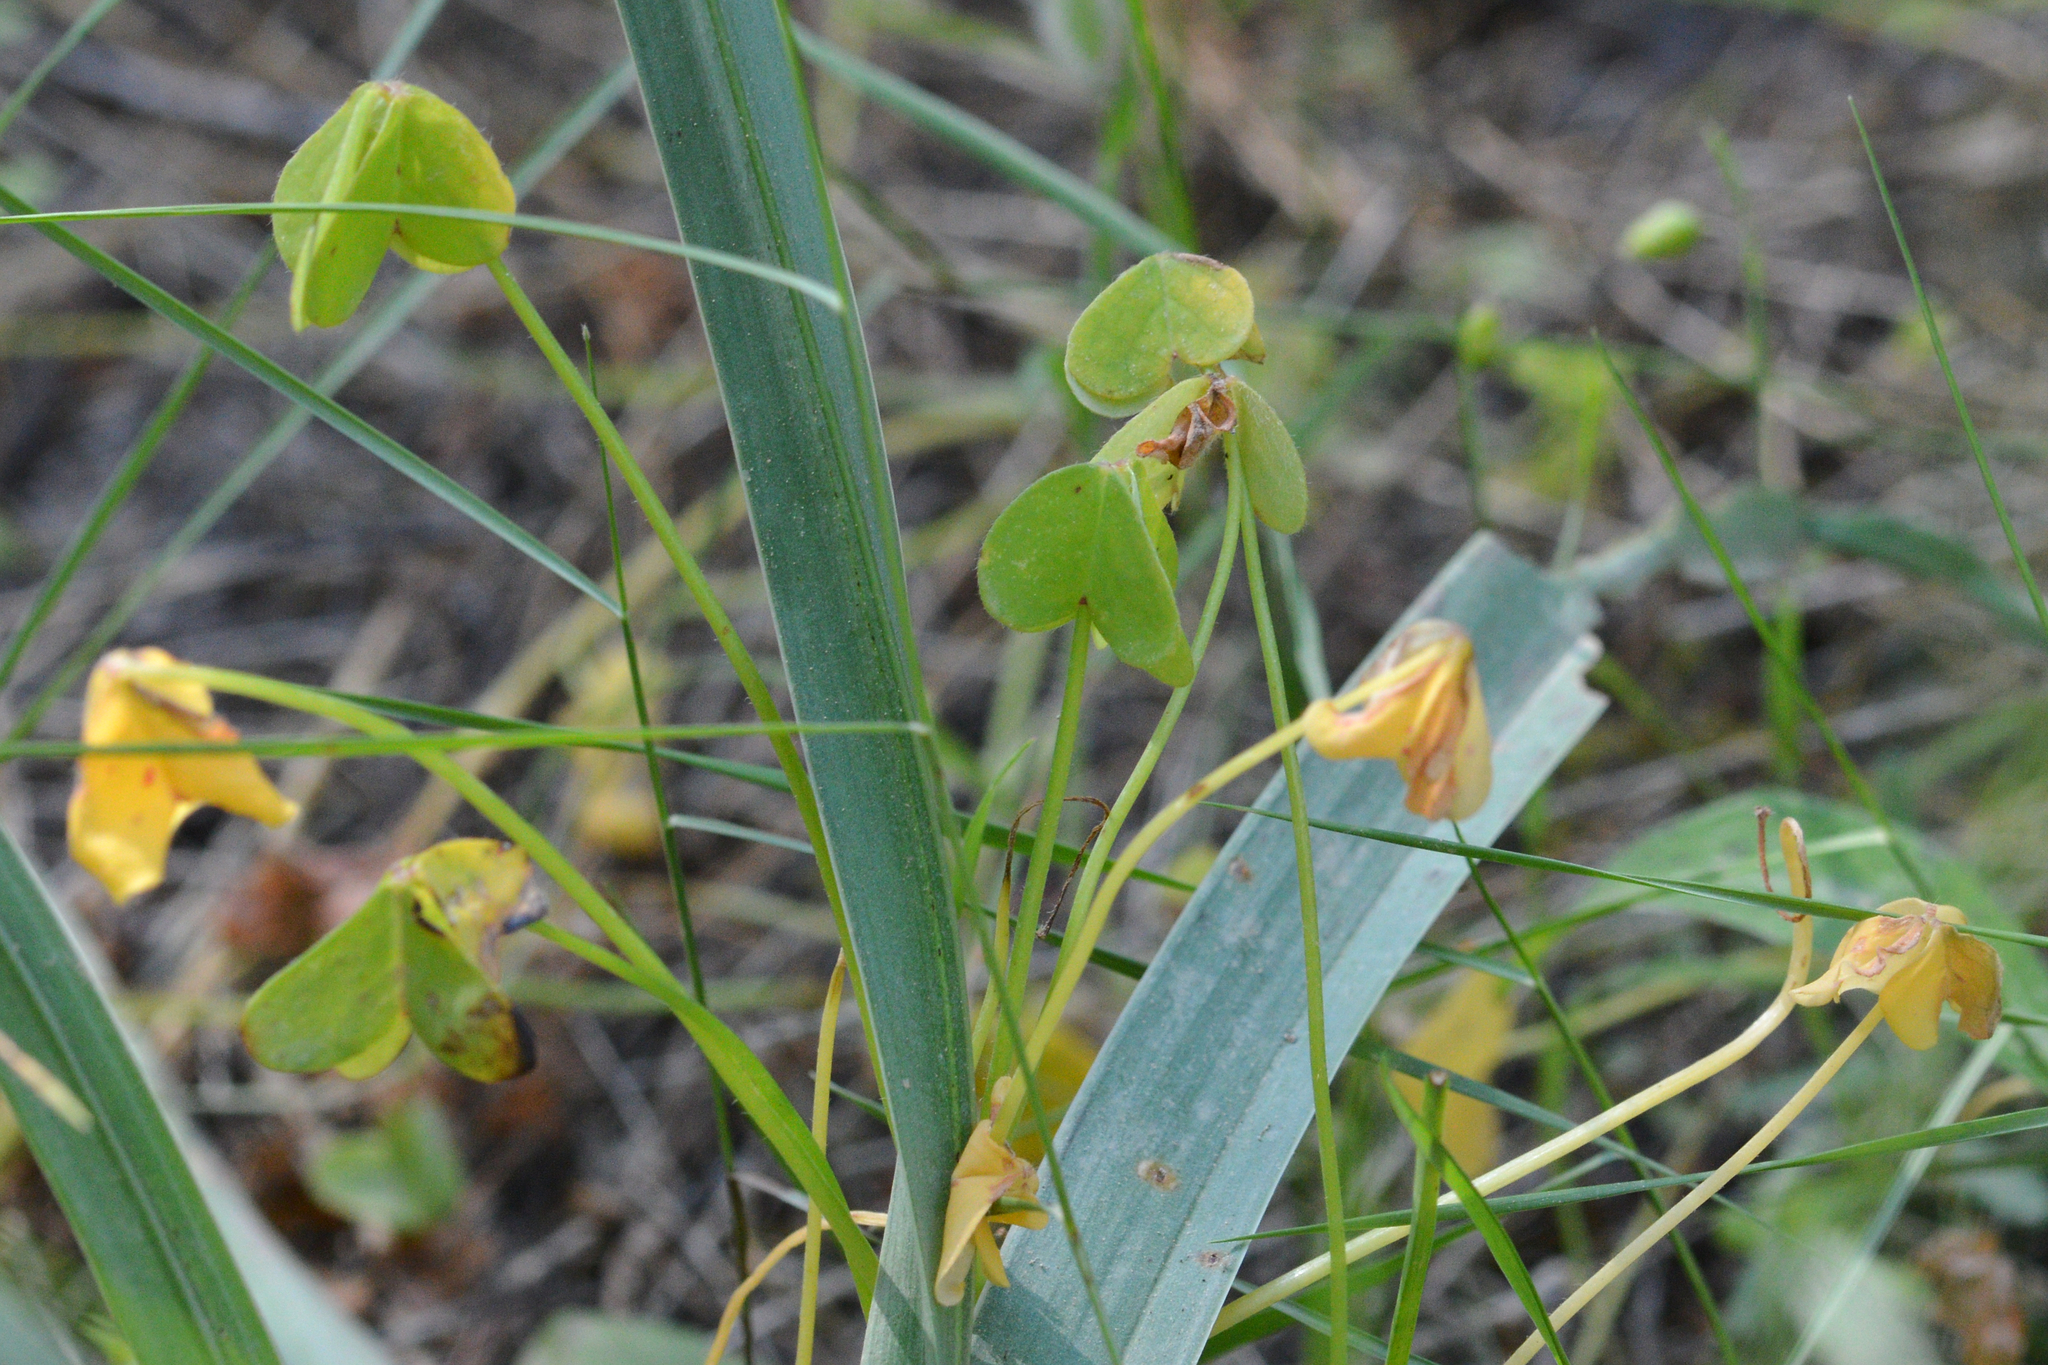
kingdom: Plantae
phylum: Tracheophyta
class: Magnoliopsida
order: Oxalidales
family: Oxalidaceae
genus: Oxalis
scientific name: Oxalis pes-caprae
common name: Bermuda-buttercup
